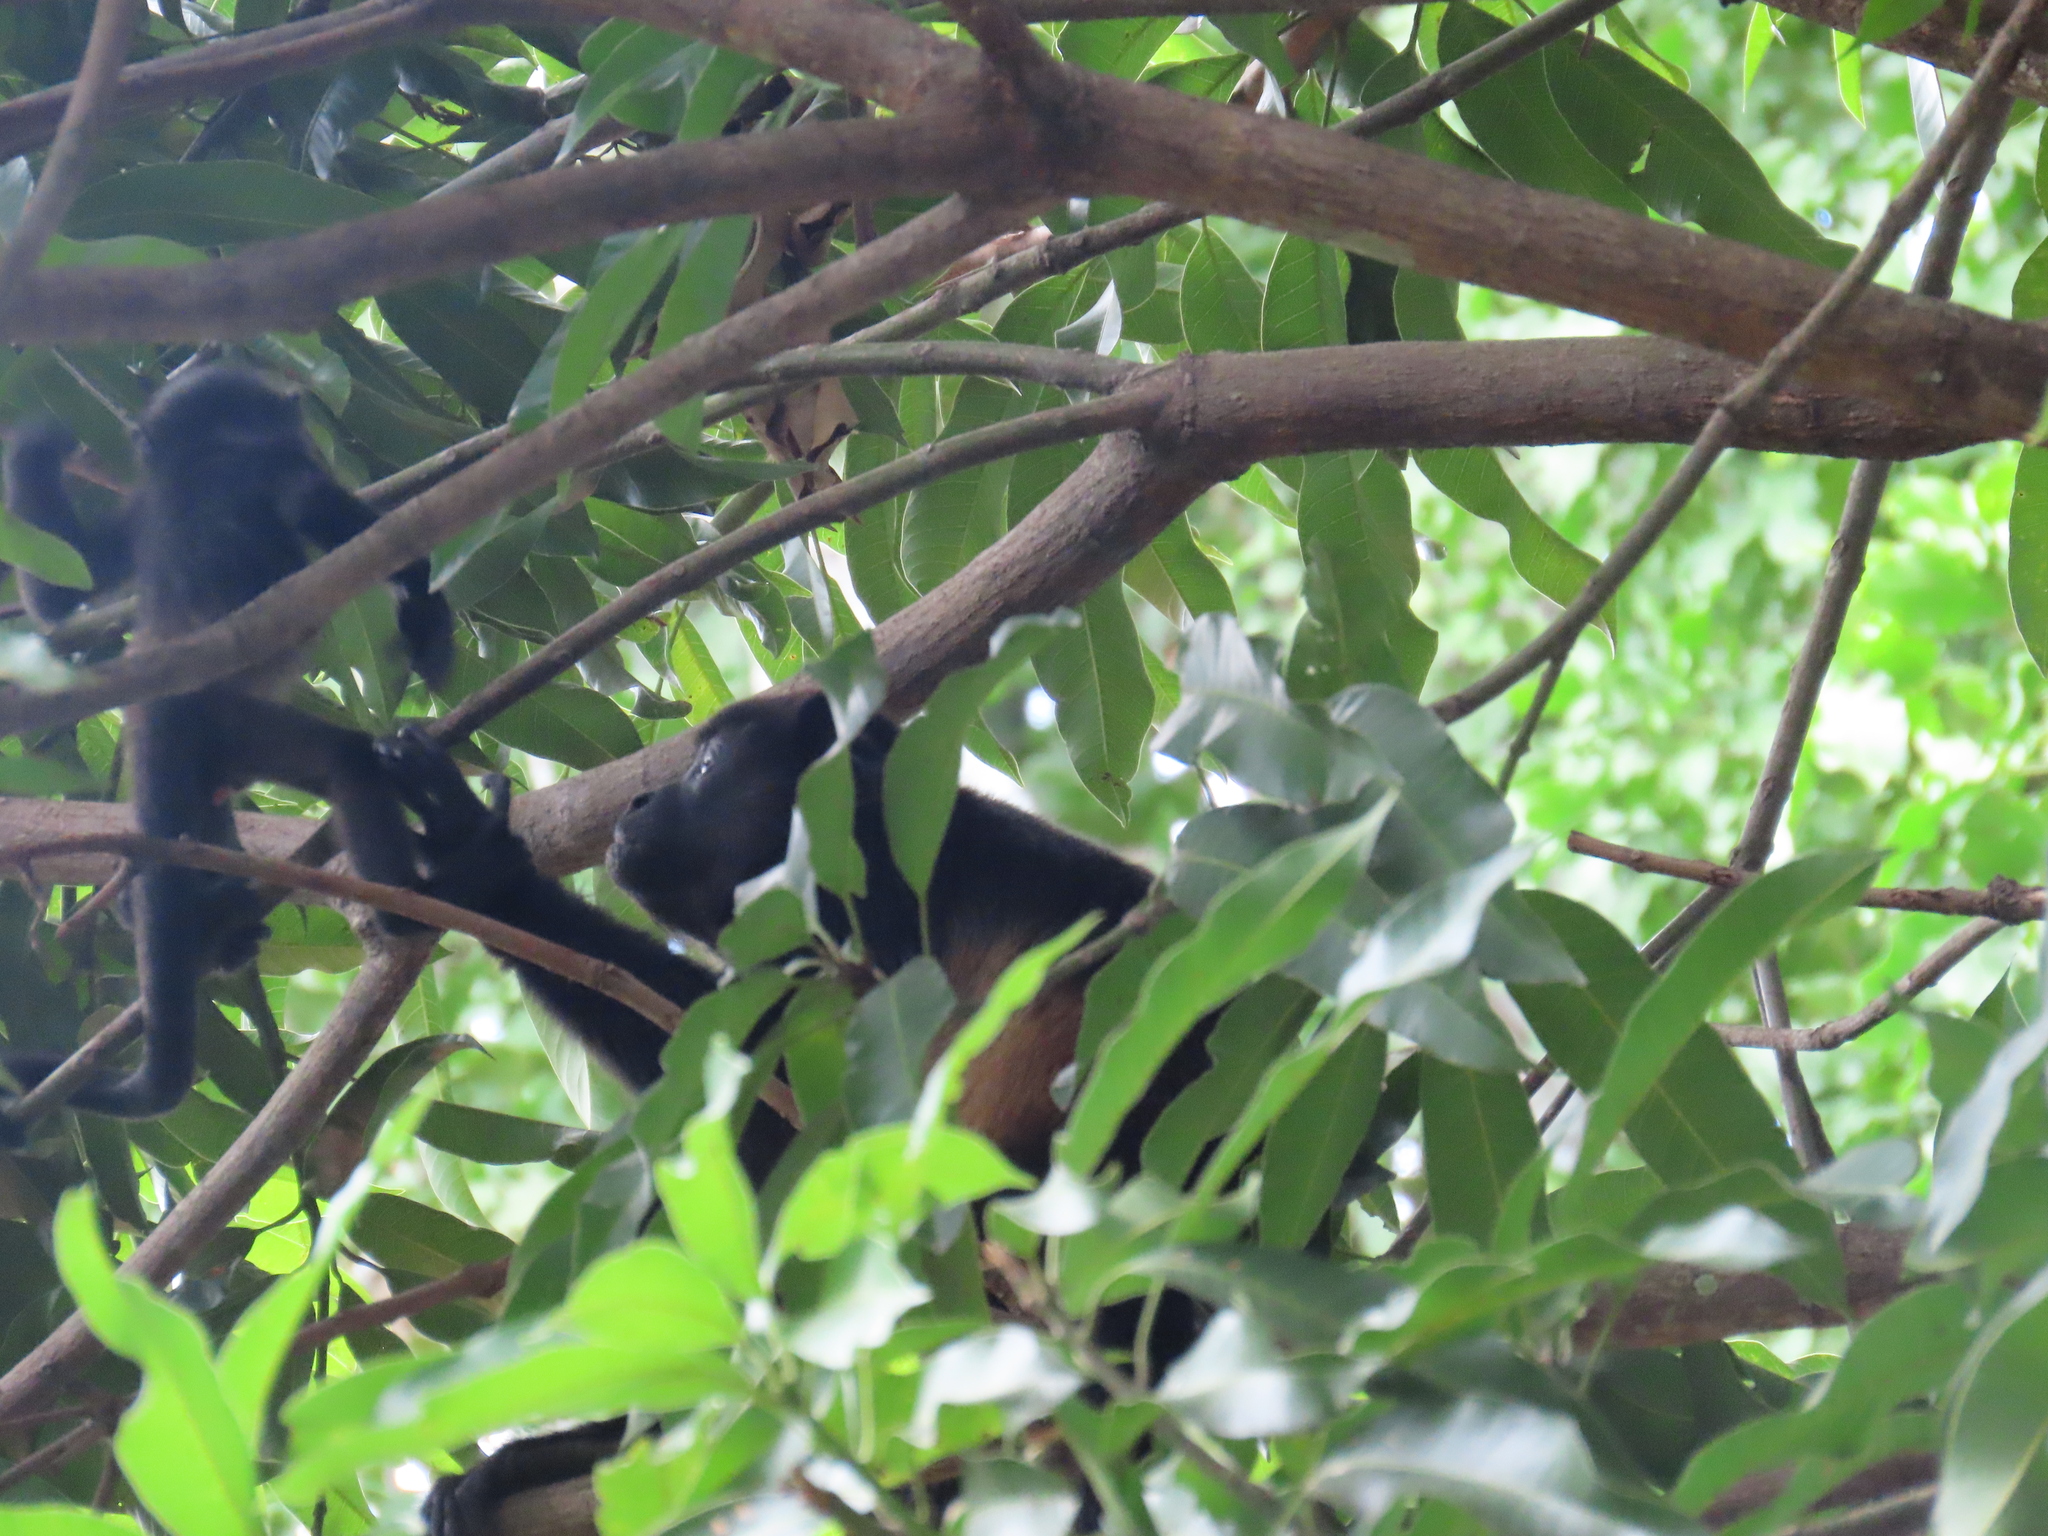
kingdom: Animalia
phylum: Chordata
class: Mammalia
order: Primates
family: Atelidae
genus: Alouatta
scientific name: Alouatta palliata
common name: Mantled howler
